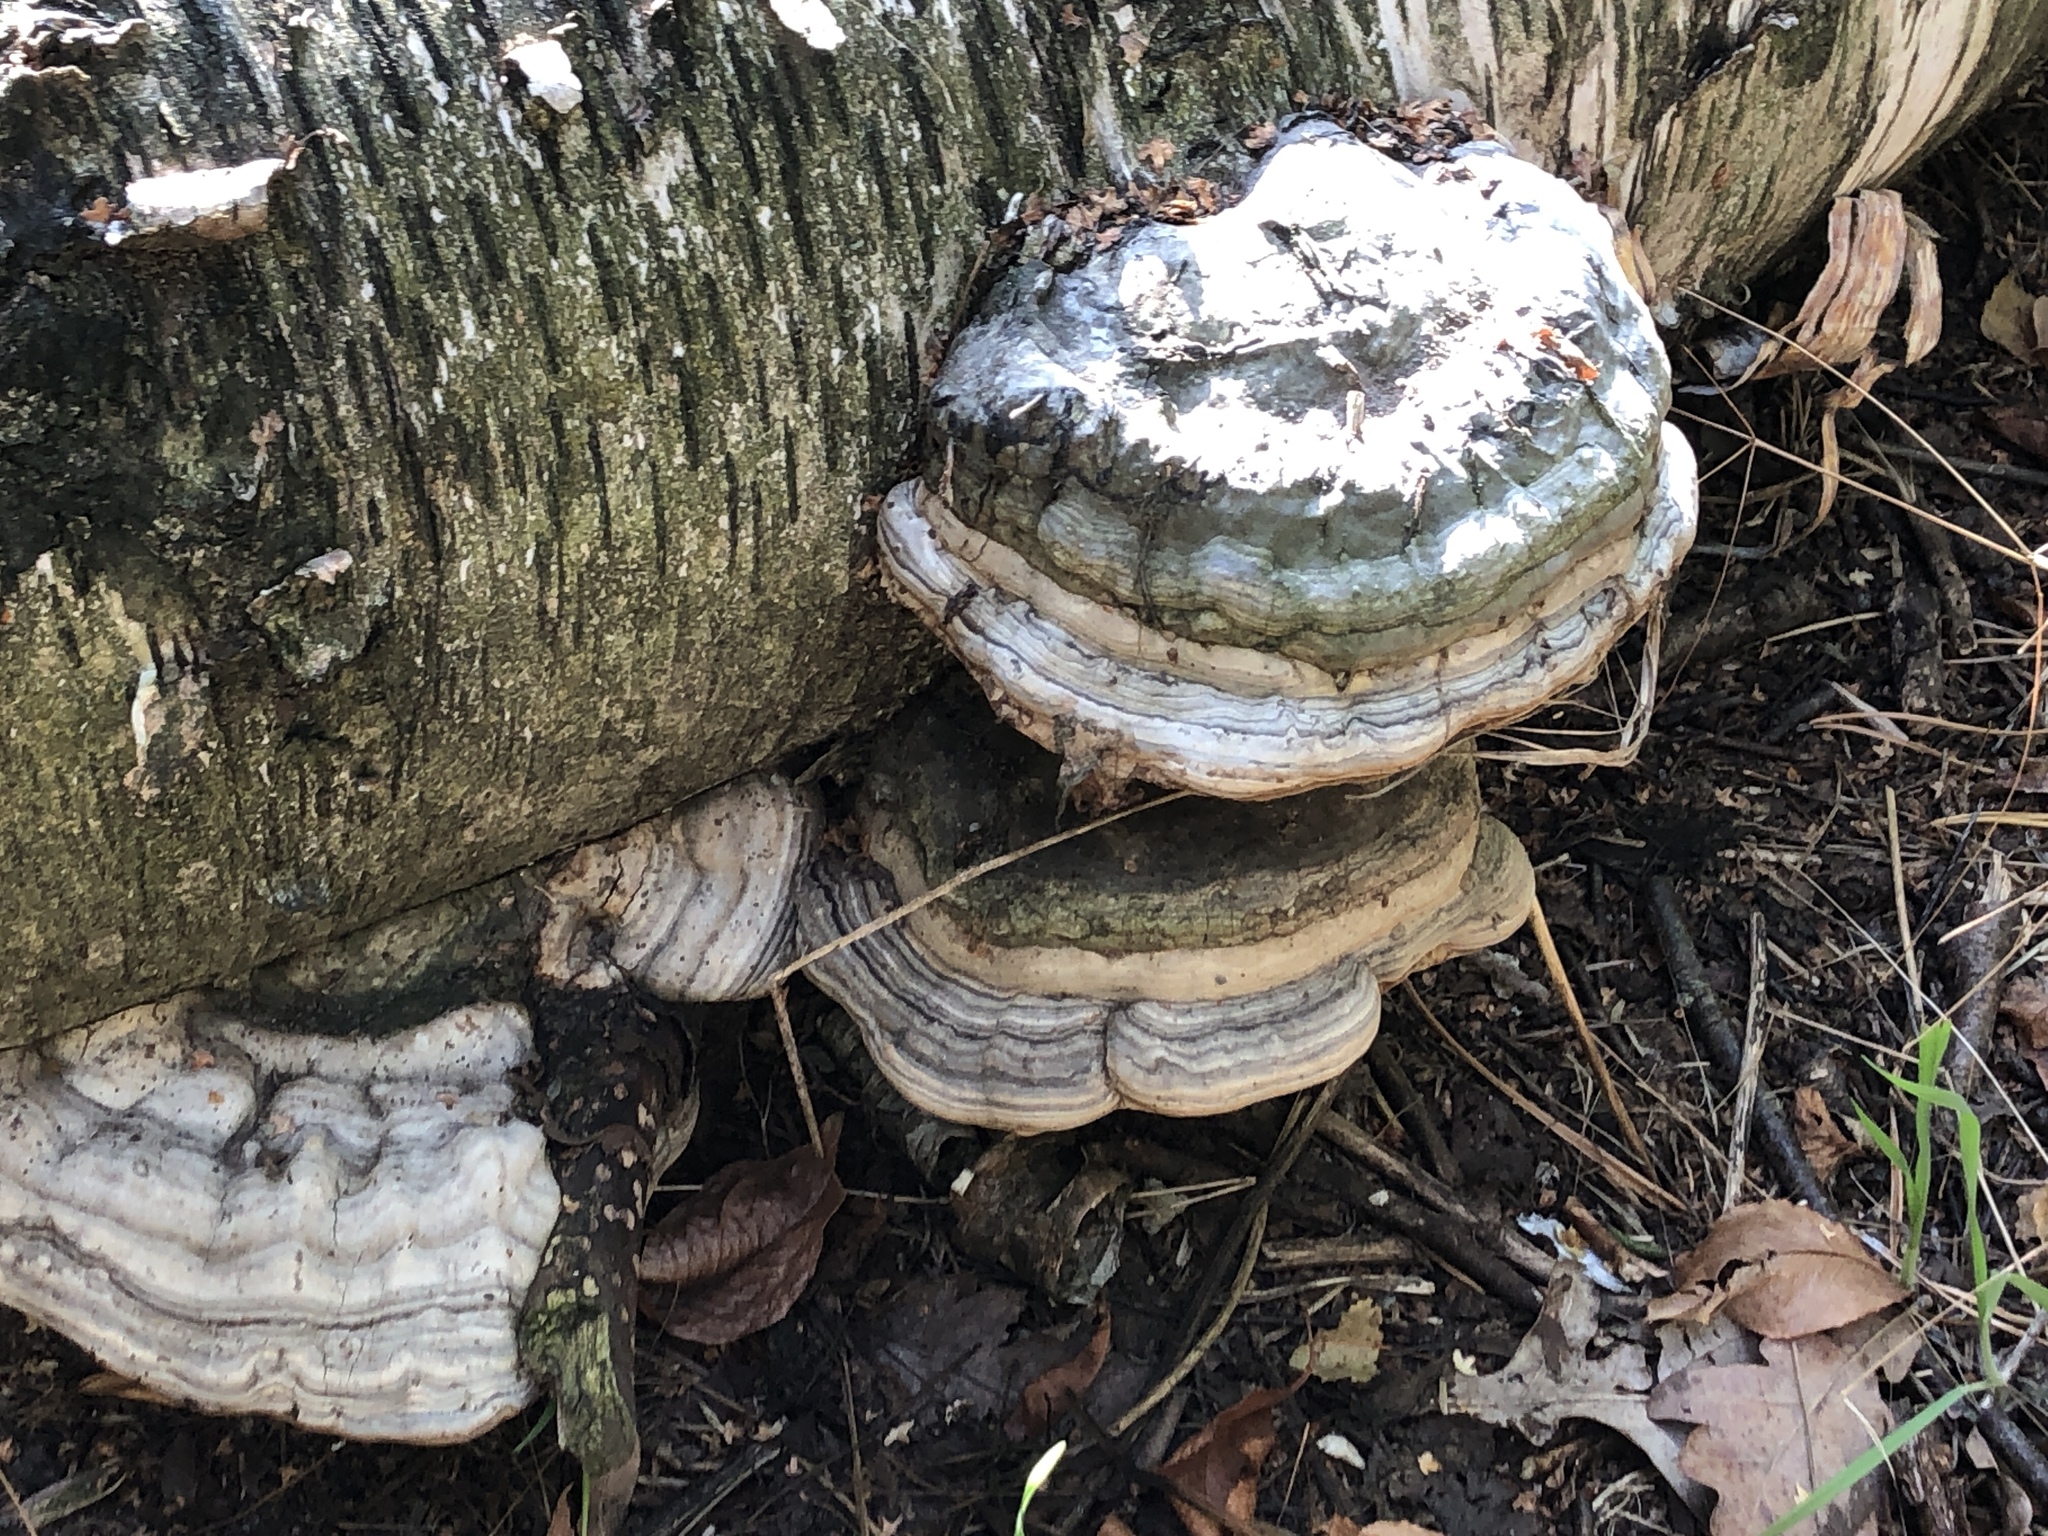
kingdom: Fungi
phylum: Basidiomycota
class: Agaricomycetes
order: Polyporales
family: Polyporaceae
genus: Fomes
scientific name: Fomes fomentarius
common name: Hoof fungus
